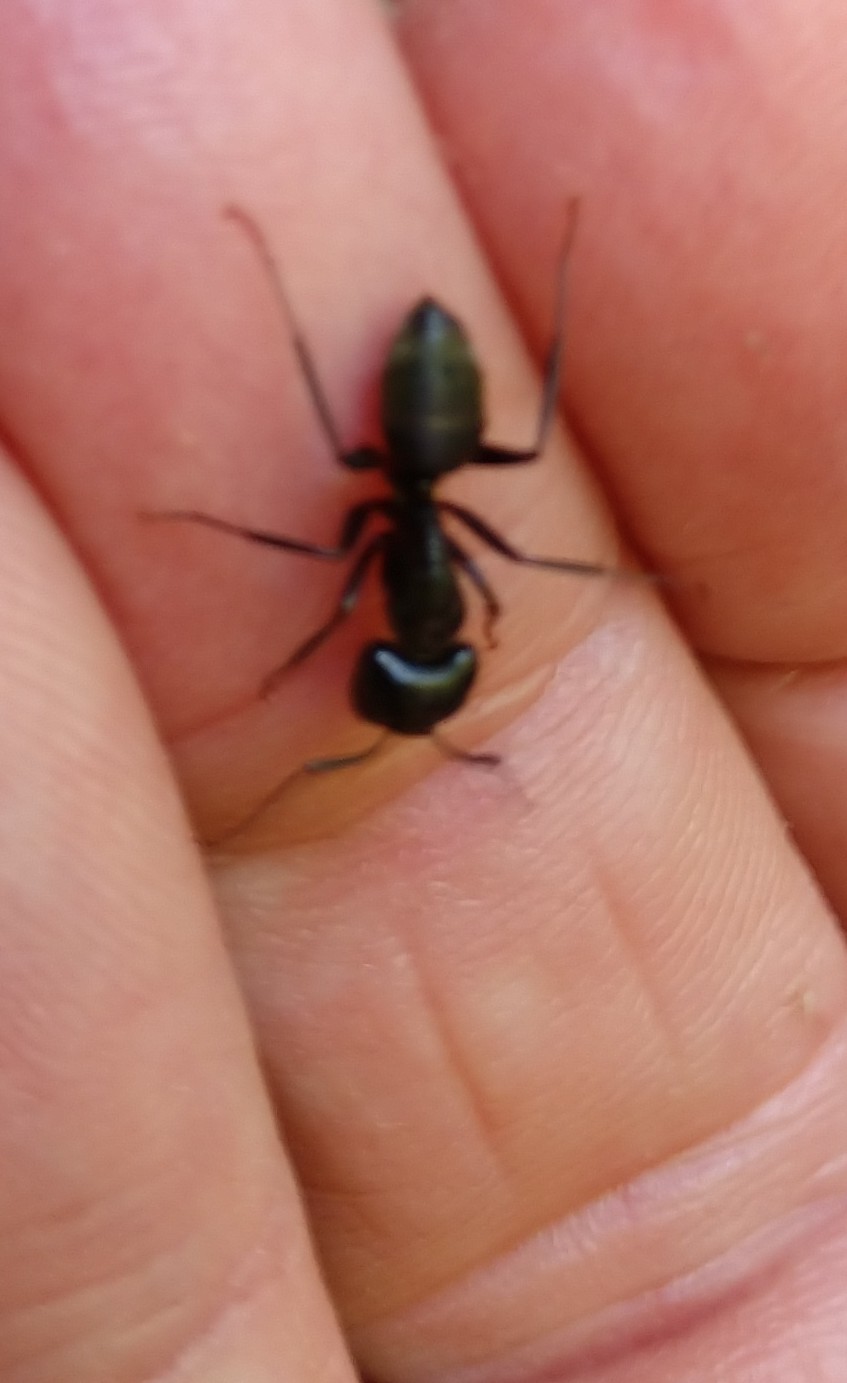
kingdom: Animalia
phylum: Arthropoda
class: Insecta
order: Hymenoptera
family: Formicidae
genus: Camponotus
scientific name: Camponotus pennsylvanicus
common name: Black carpenter ant
